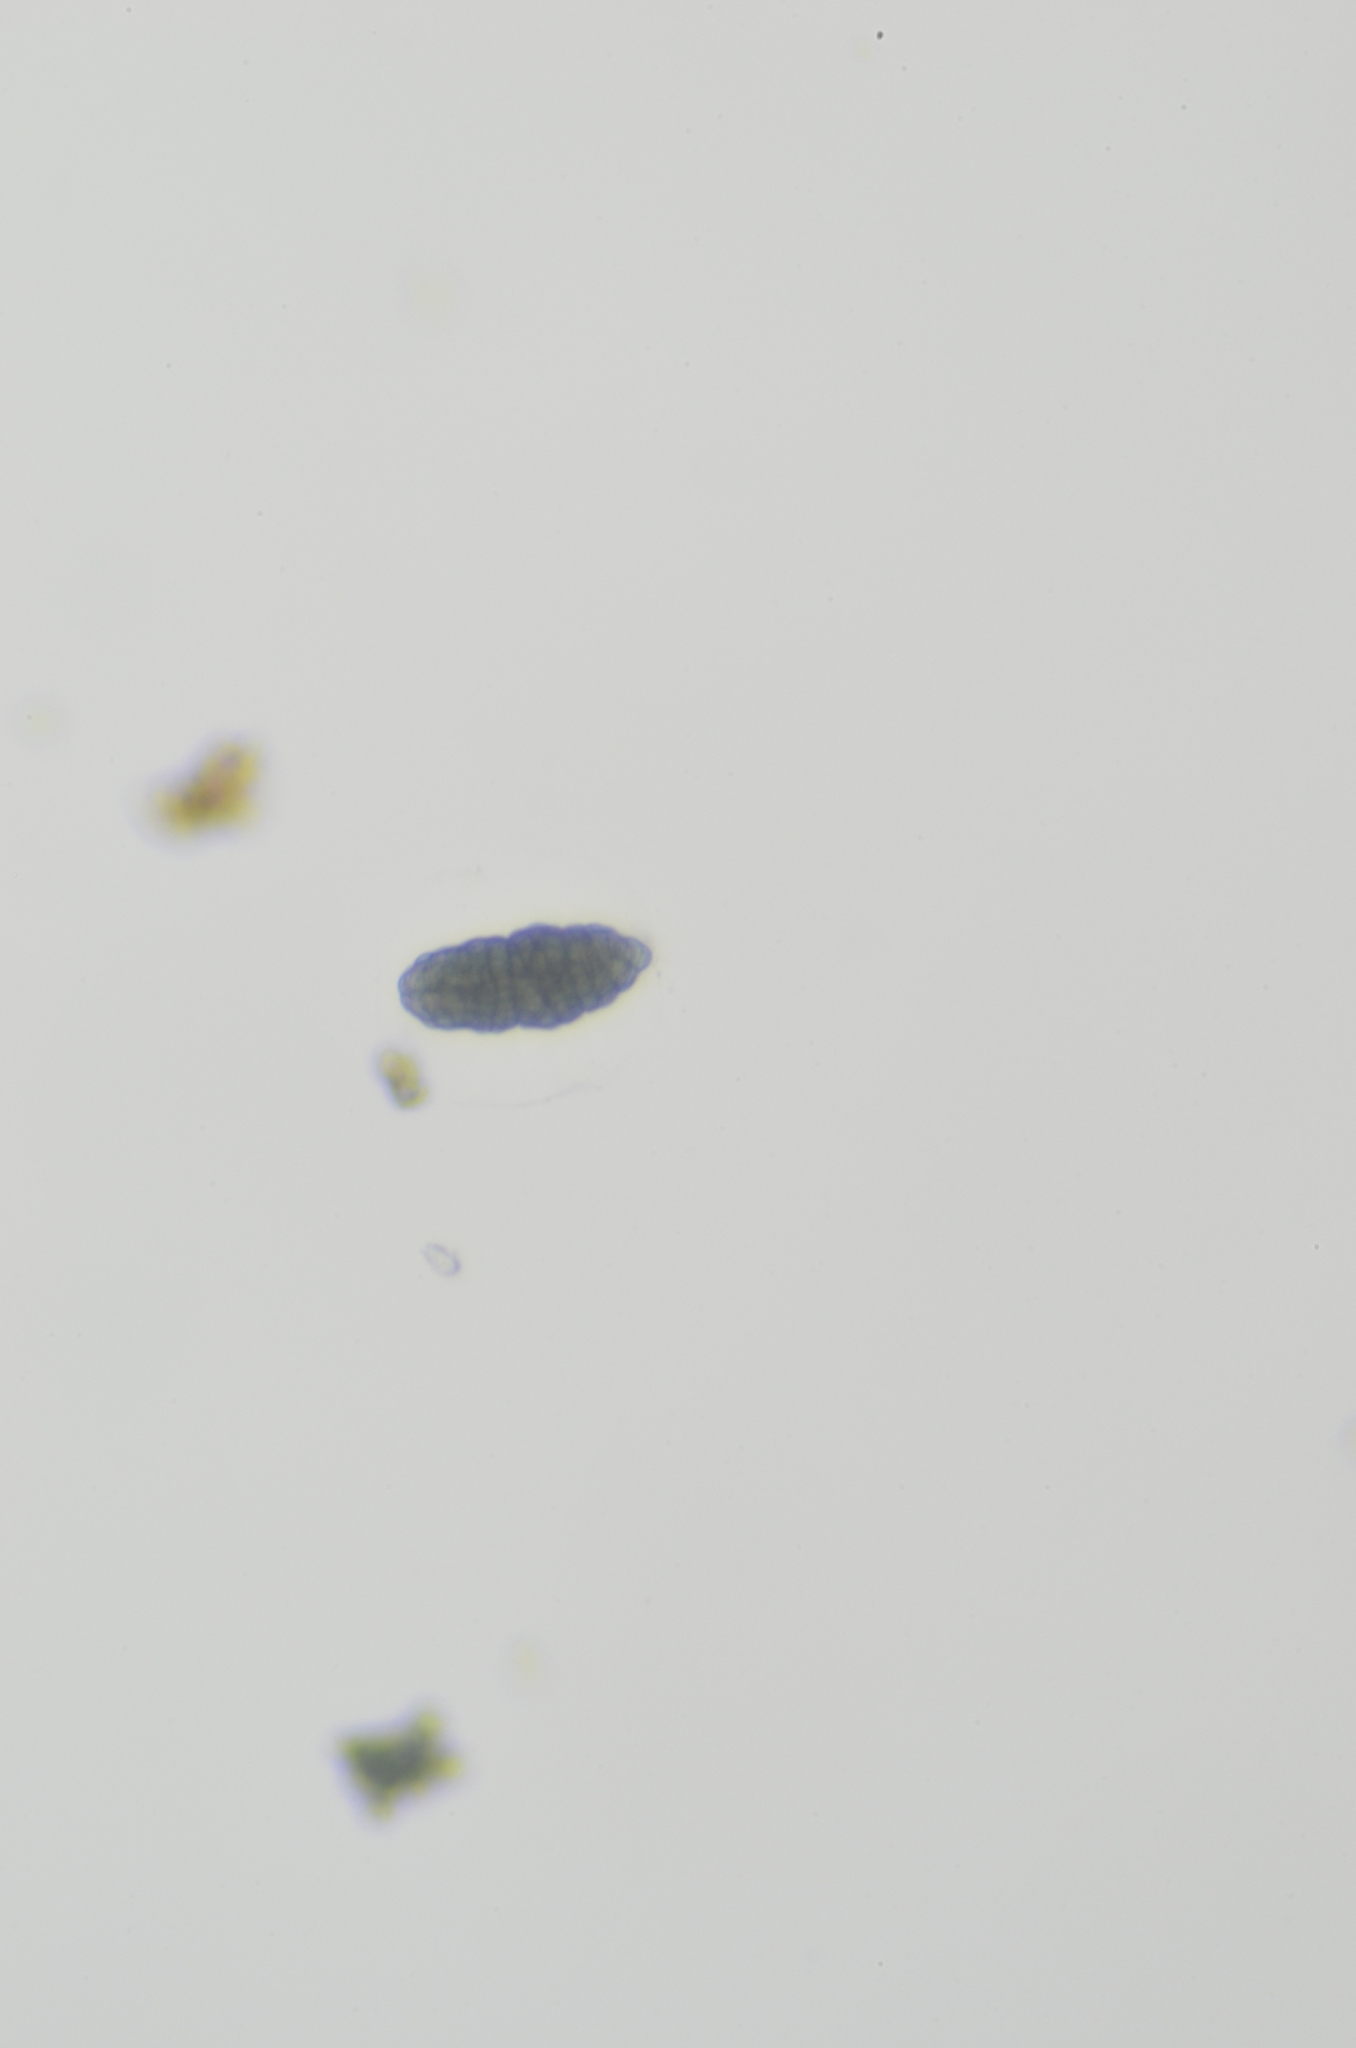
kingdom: Fungi
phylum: Ascomycota
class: Lecanoromycetes
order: Rhizocarpales
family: Rhizocarpaceae
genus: Rhizocarpon
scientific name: Rhizocarpon geminatum
